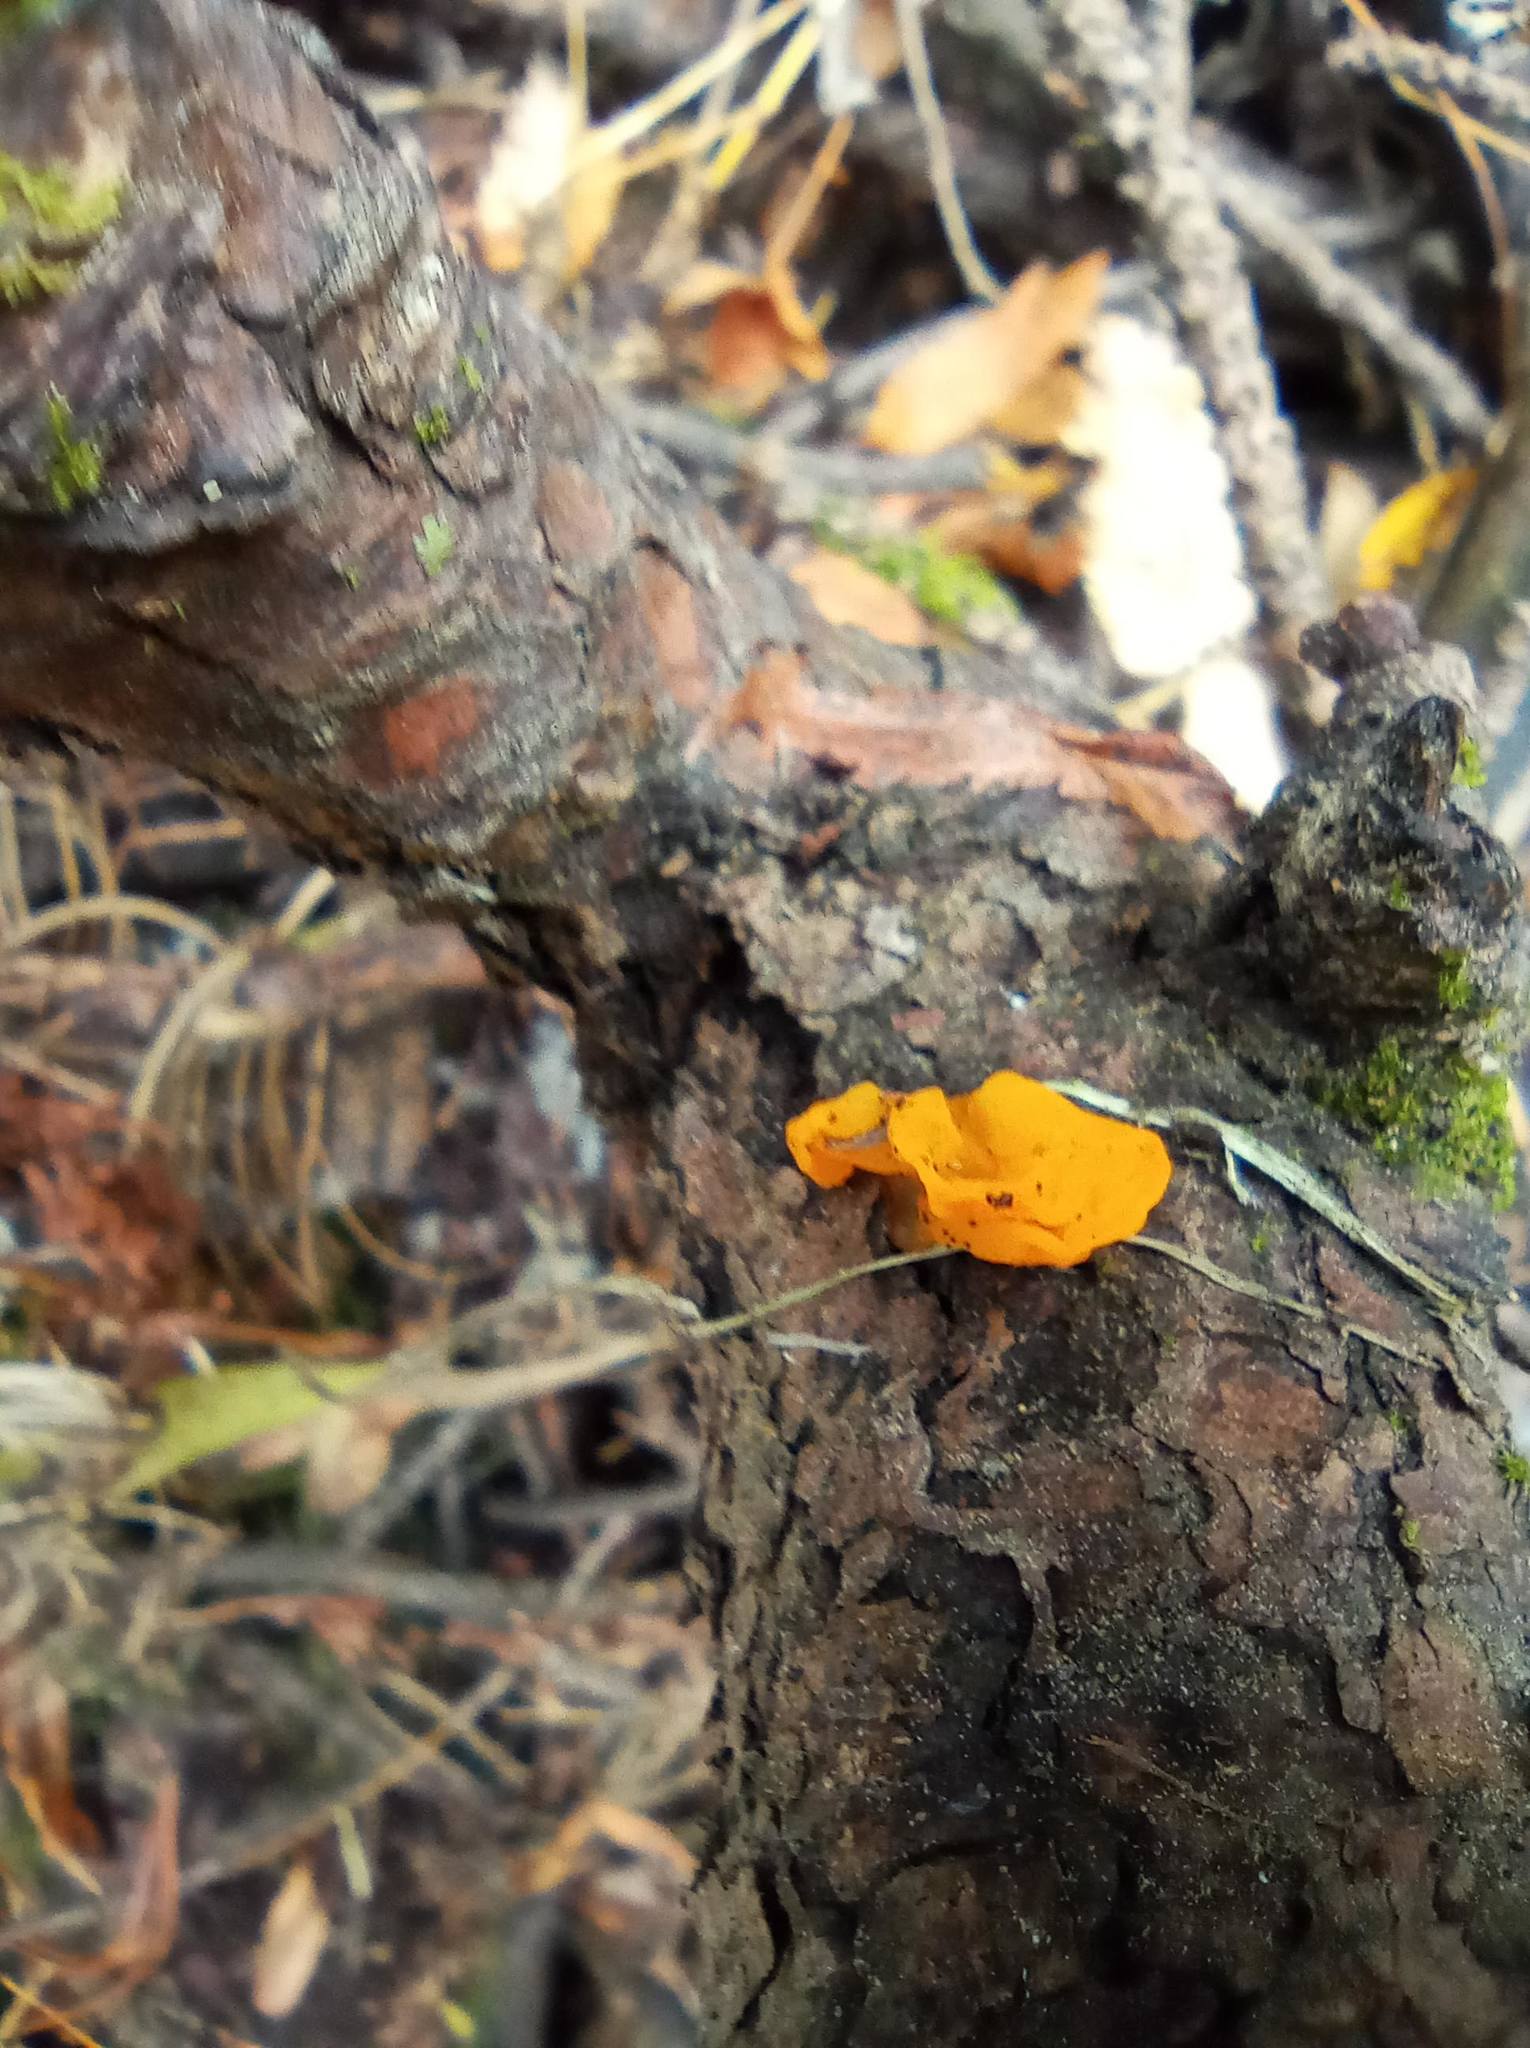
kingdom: Fungi
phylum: Basidiomycota
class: Dacrymycetes
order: Dacrymycetales
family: Dacrymycetaceae
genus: Dacrymyces
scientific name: Dacrymyces chrysospermus
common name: Orange jelly spot
